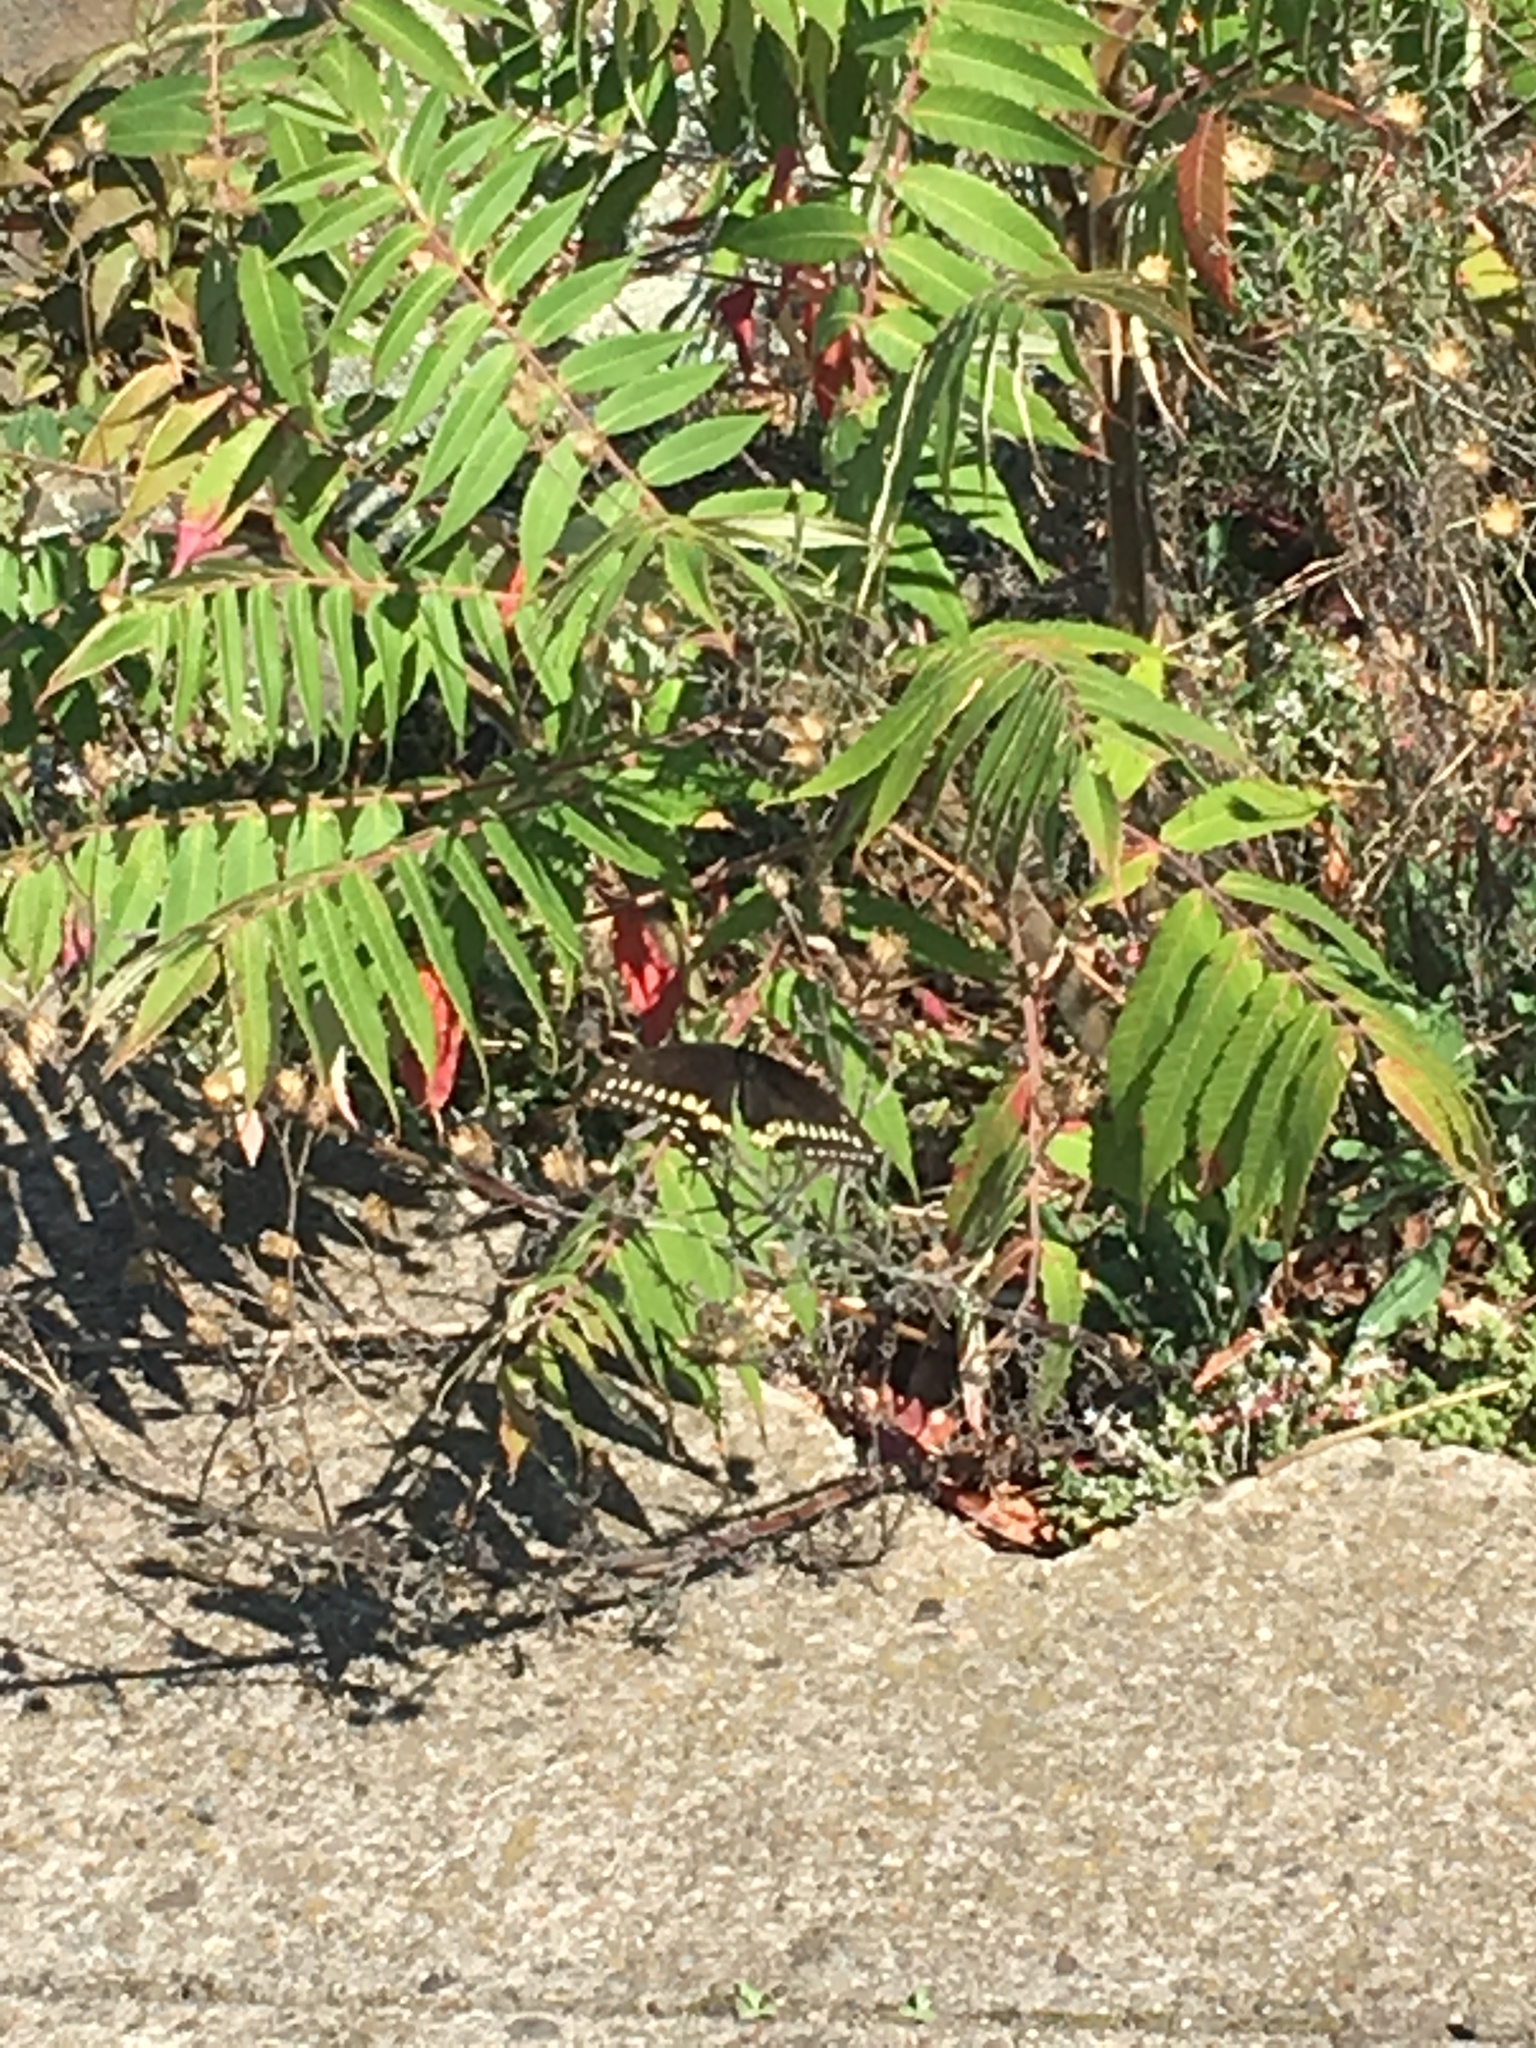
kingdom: Animalia
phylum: Arthropoda
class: Insecta
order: Lepidoptera
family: Papilionidae
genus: Papilio
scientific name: Papilio polyxenes
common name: Black swallowtail
